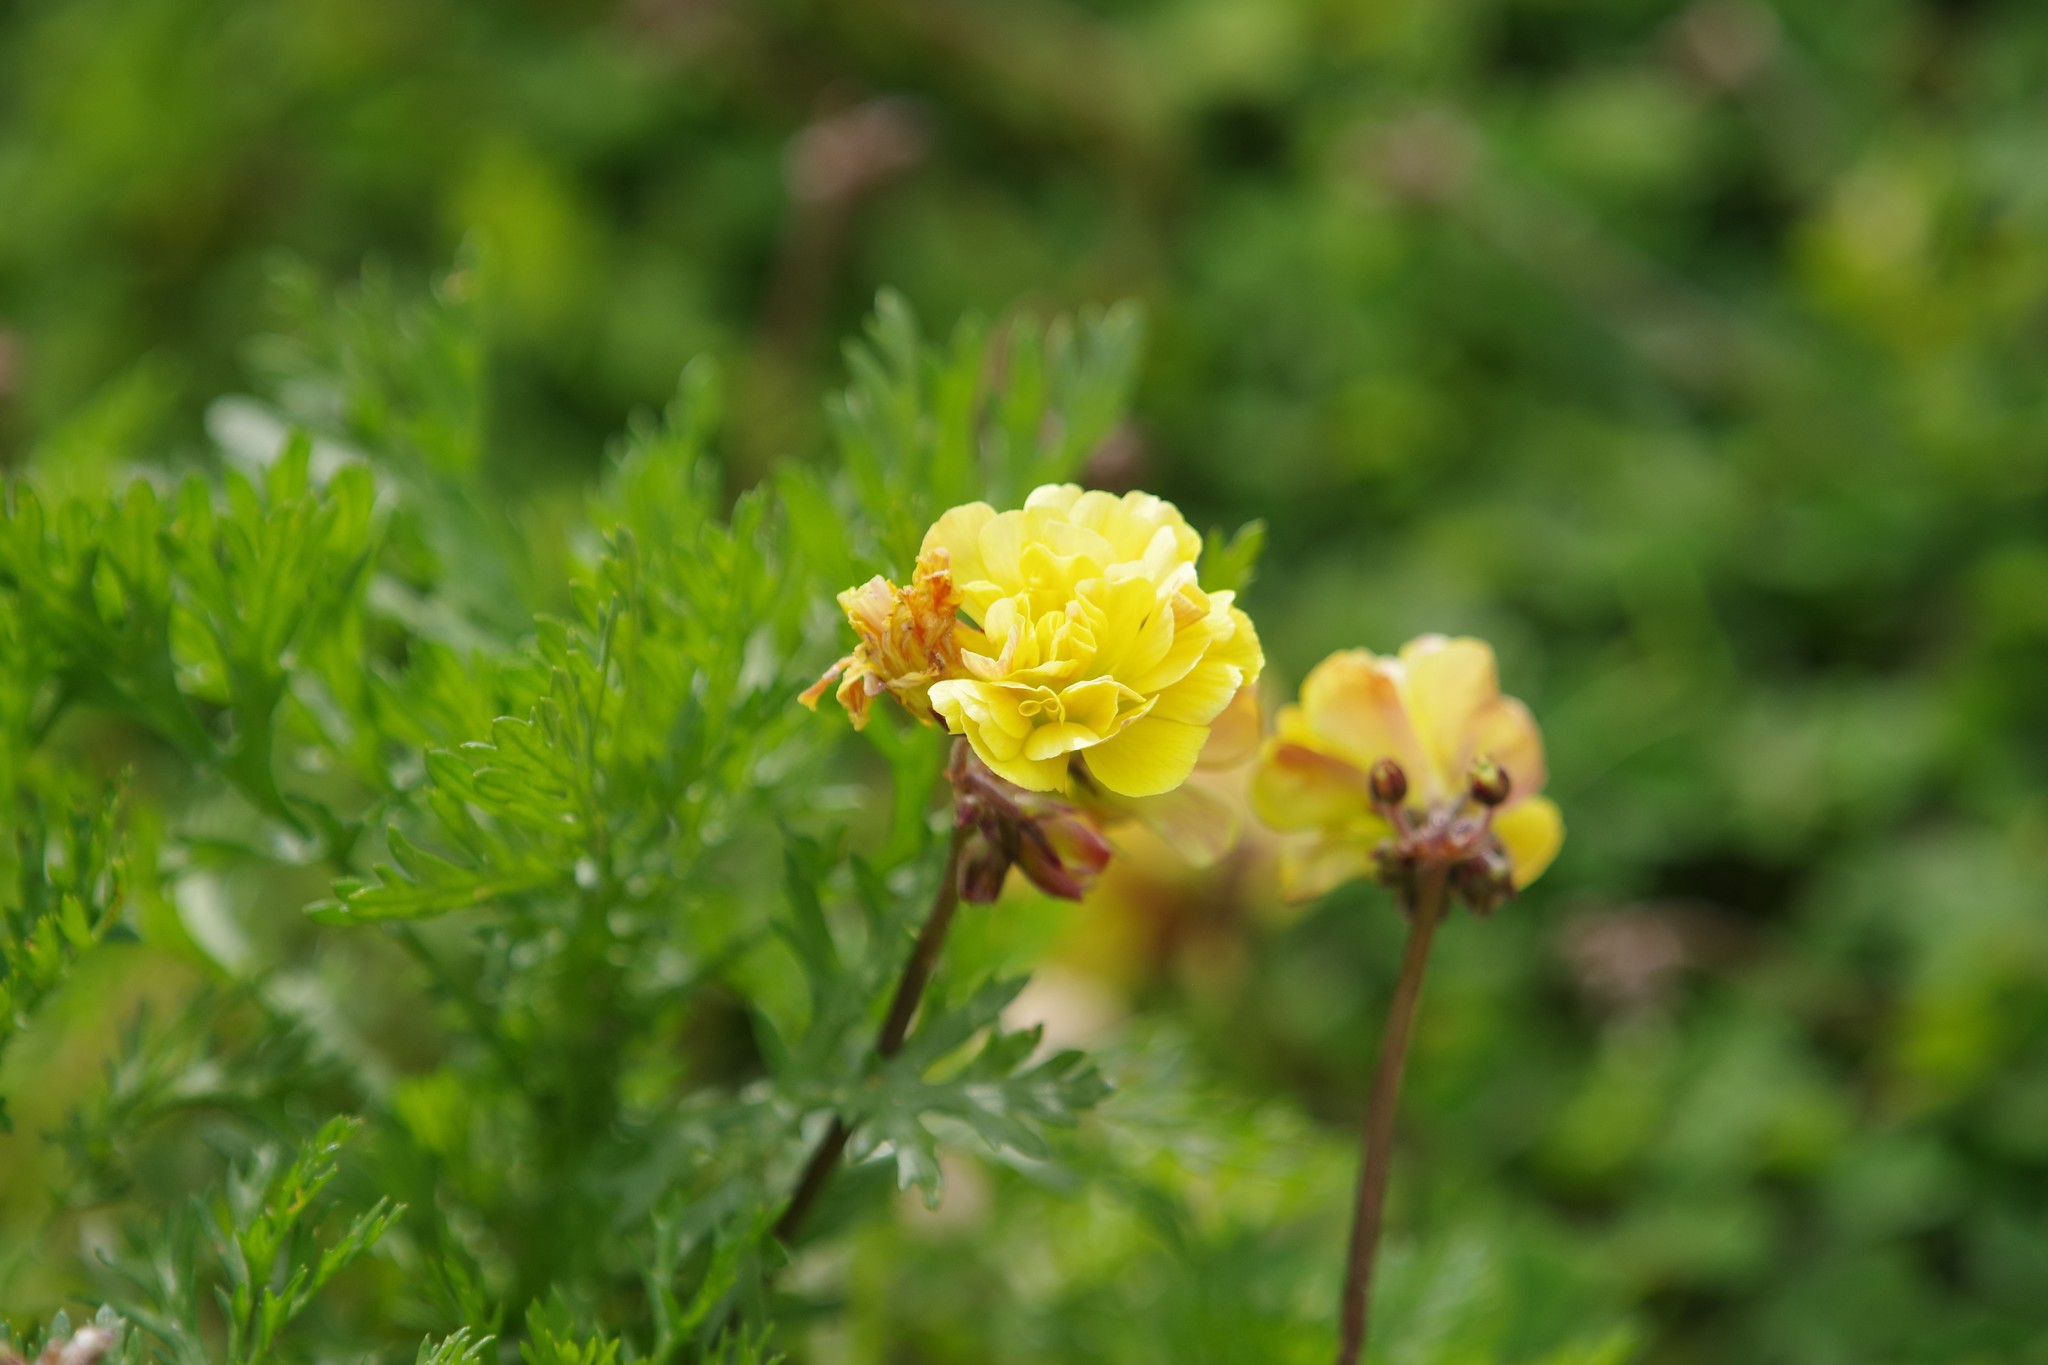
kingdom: Plantae
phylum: Tracheophyta
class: Magnoliopsida
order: Oxalidales
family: Oxalidaceae
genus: Oxalis
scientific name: Oxalis pes-caprae
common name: Bermuda-buttercup
